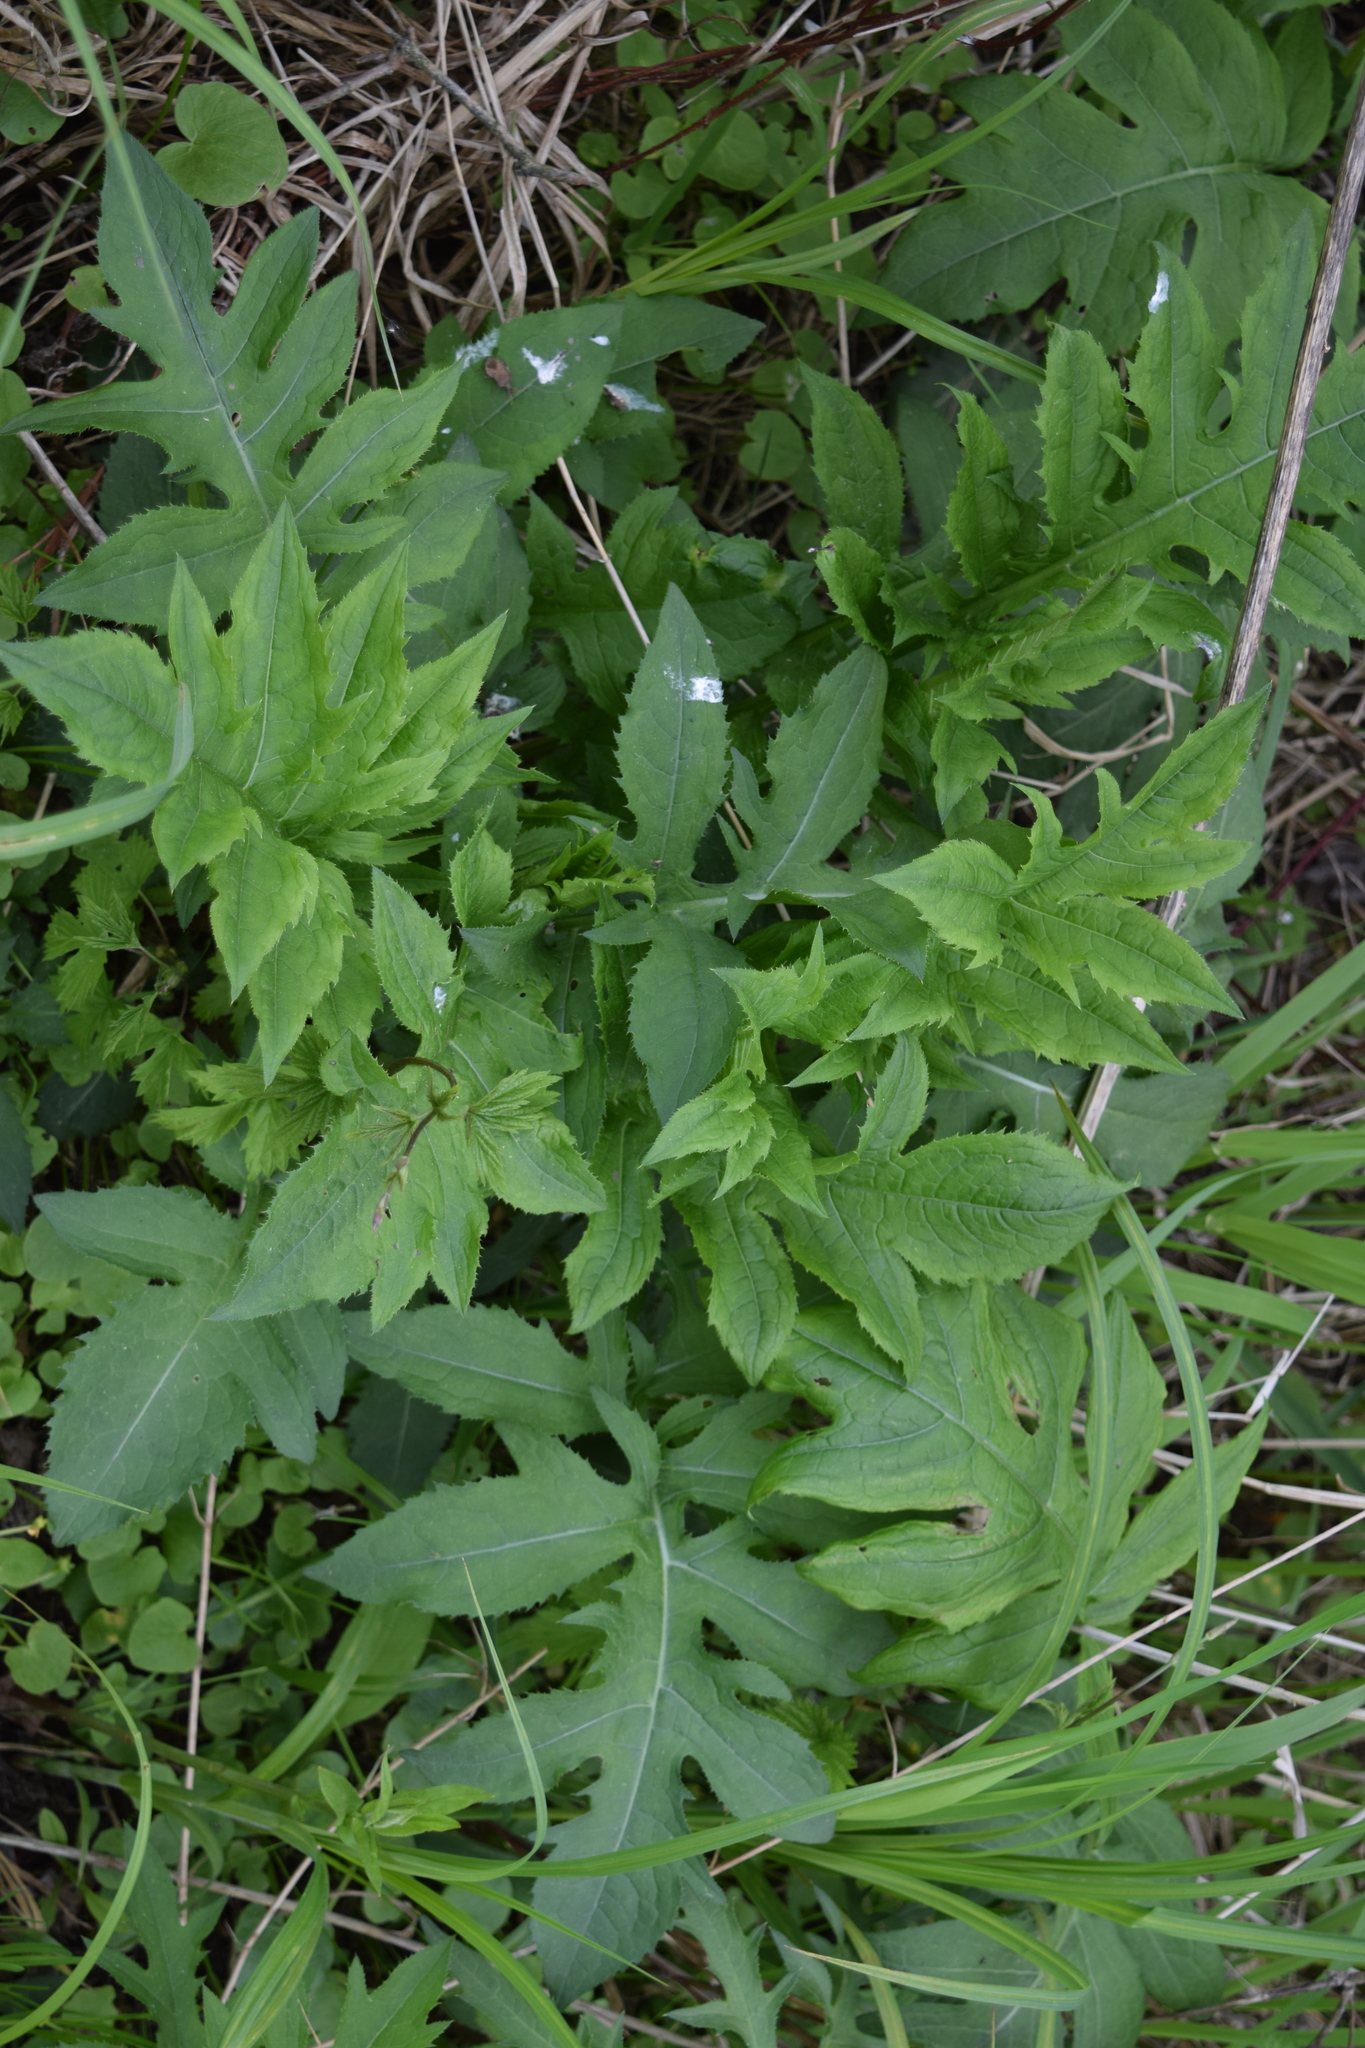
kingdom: Plantae
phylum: Tracheophyta
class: Magnoliopsida
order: Asterales
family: Asteraceae
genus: Cirsium
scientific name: Cirsium oleraceum
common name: Cabbage thistle
